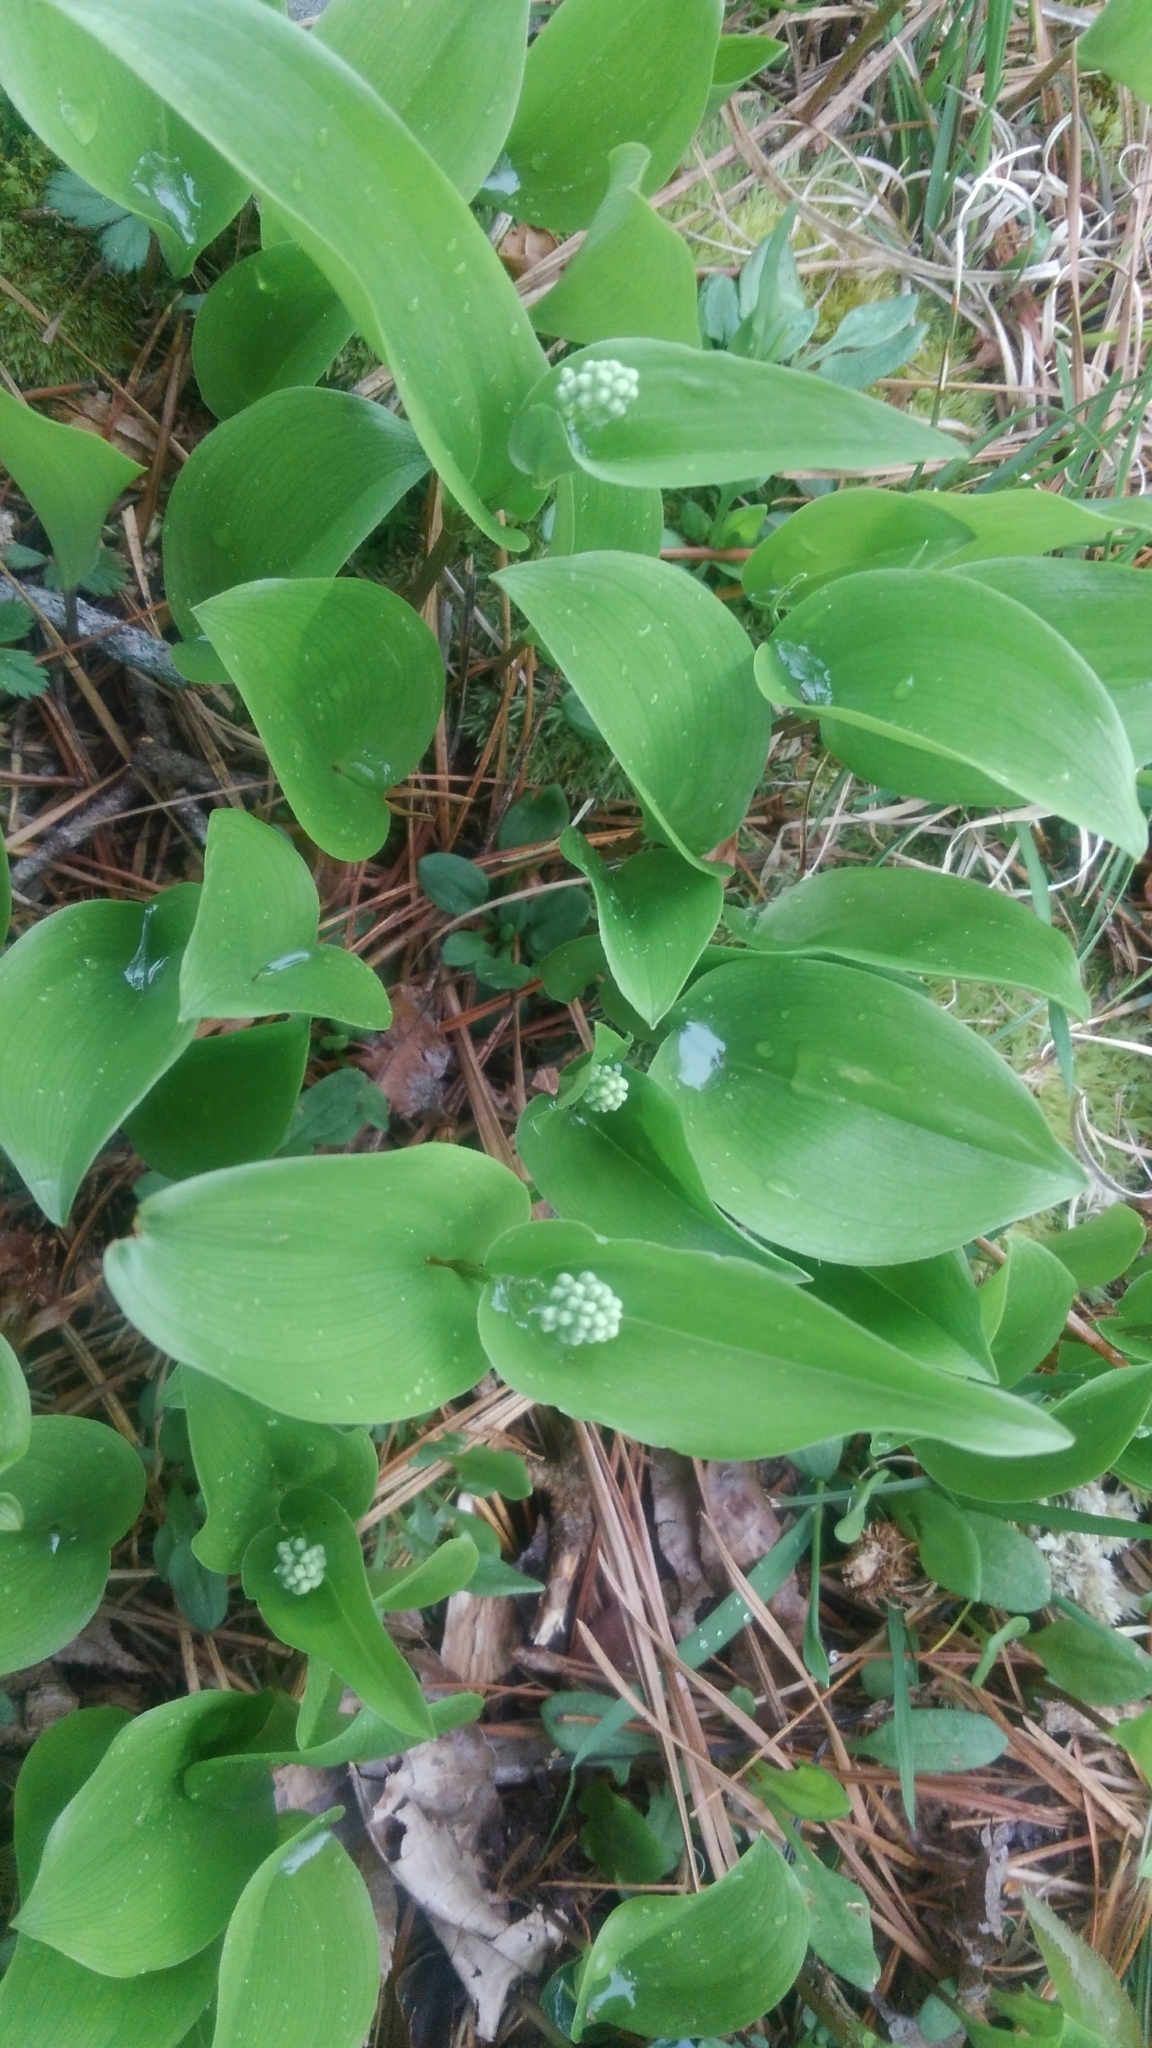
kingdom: Plantae
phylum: Tracheophyta
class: Liliopsida
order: Asparagales
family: Asparagaceae
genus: Maianthemum
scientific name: Maianthemum canadense
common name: False lily-of-the-valley
